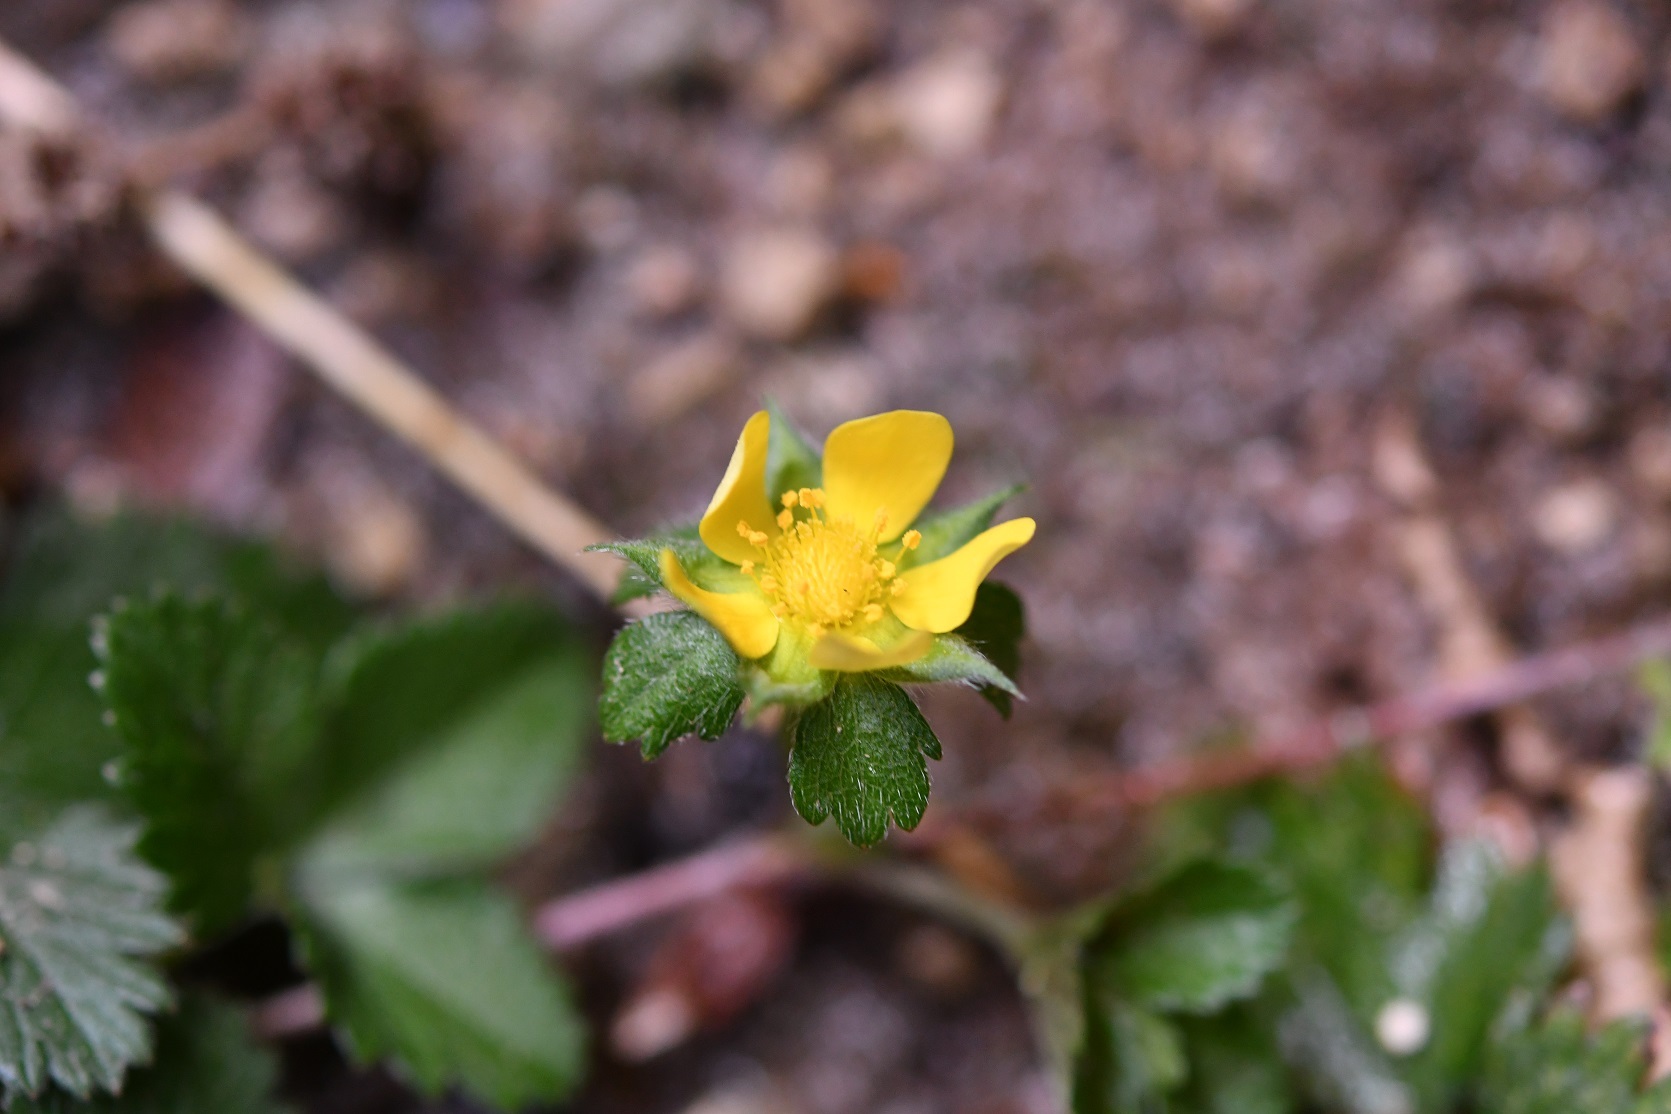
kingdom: Plantae
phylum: Tracheophyta
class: Magnoliopsida
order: Rosales
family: Rosaceae
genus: Potentilla
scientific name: Potentilla indica
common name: Yellow-flowered strawberry
